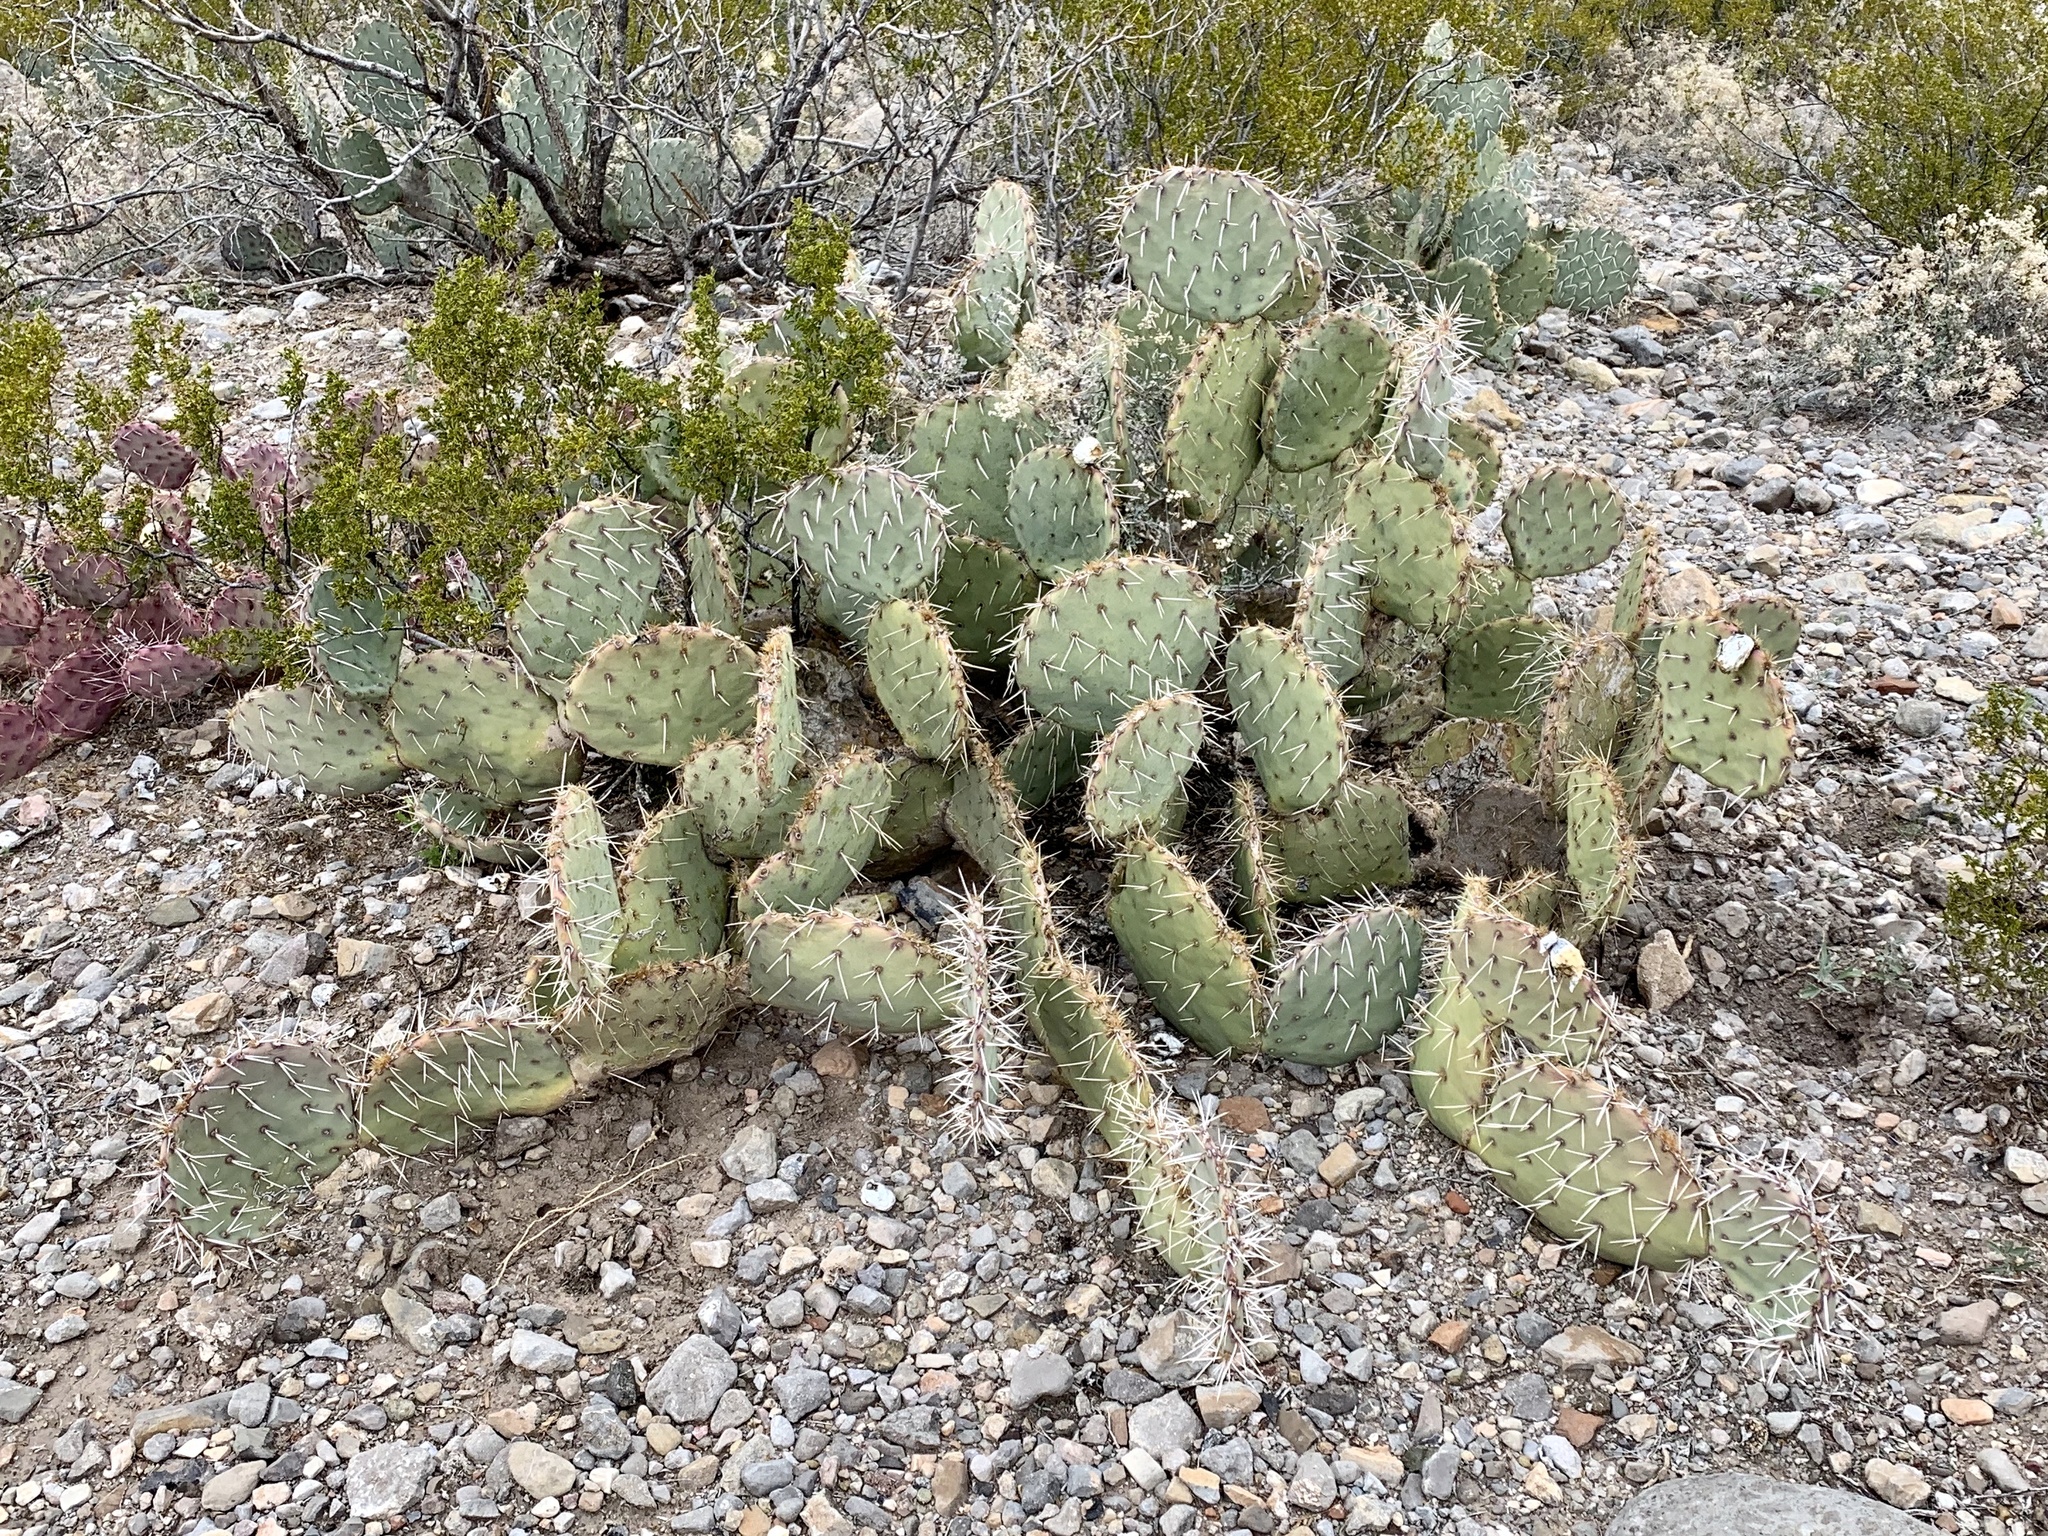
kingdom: Plantae
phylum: Tracheophyta
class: Magnoliopsida
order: Caryophyllales
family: Cactaceae
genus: Opuntia
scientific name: Opuntia engelmannii
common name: Cactus-apple
